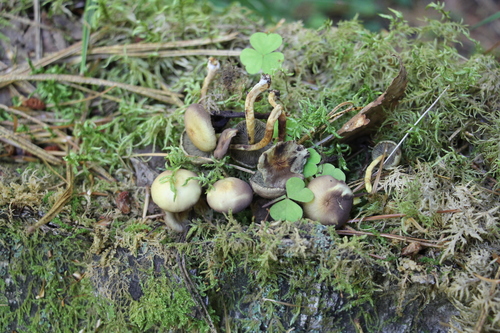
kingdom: Fungi
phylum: Basidiomycota
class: Agaricomycetes
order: Agaricales
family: Strophariaceae
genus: Hypholoma
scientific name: Hypholoma fasciculare
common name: Sulphur tuft
